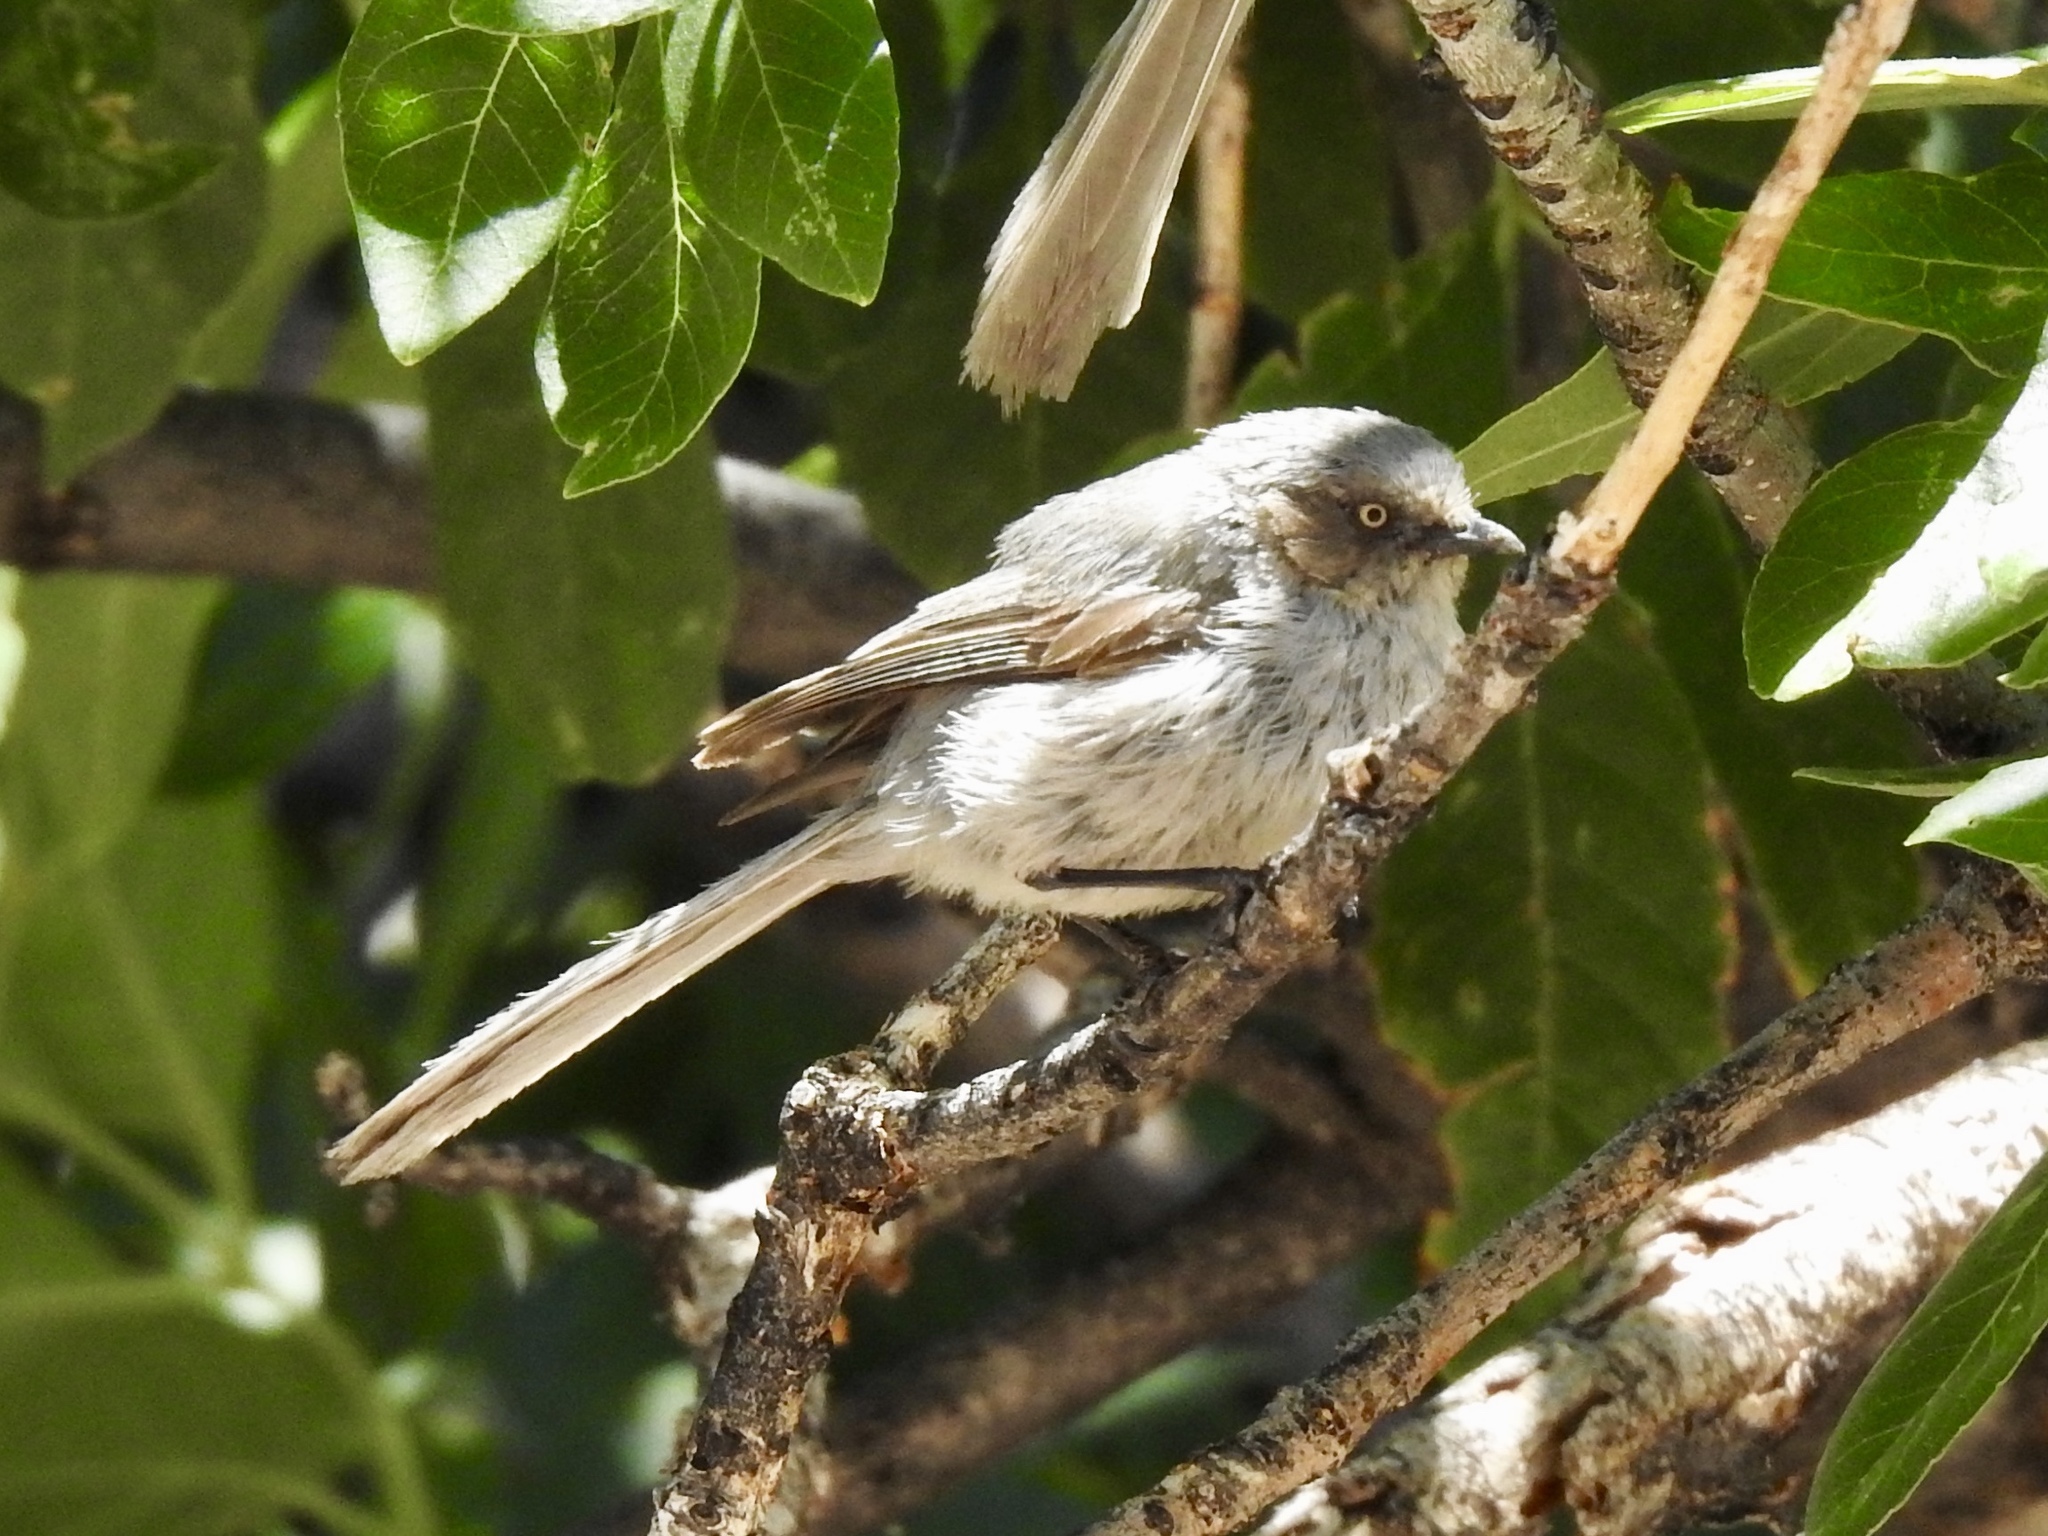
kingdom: Animalia
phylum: Chordata
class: Aves
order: Passeriformes
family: Aegithalidae
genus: Psaltriparus
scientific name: Psaltriparus minimus
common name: American bushtit
